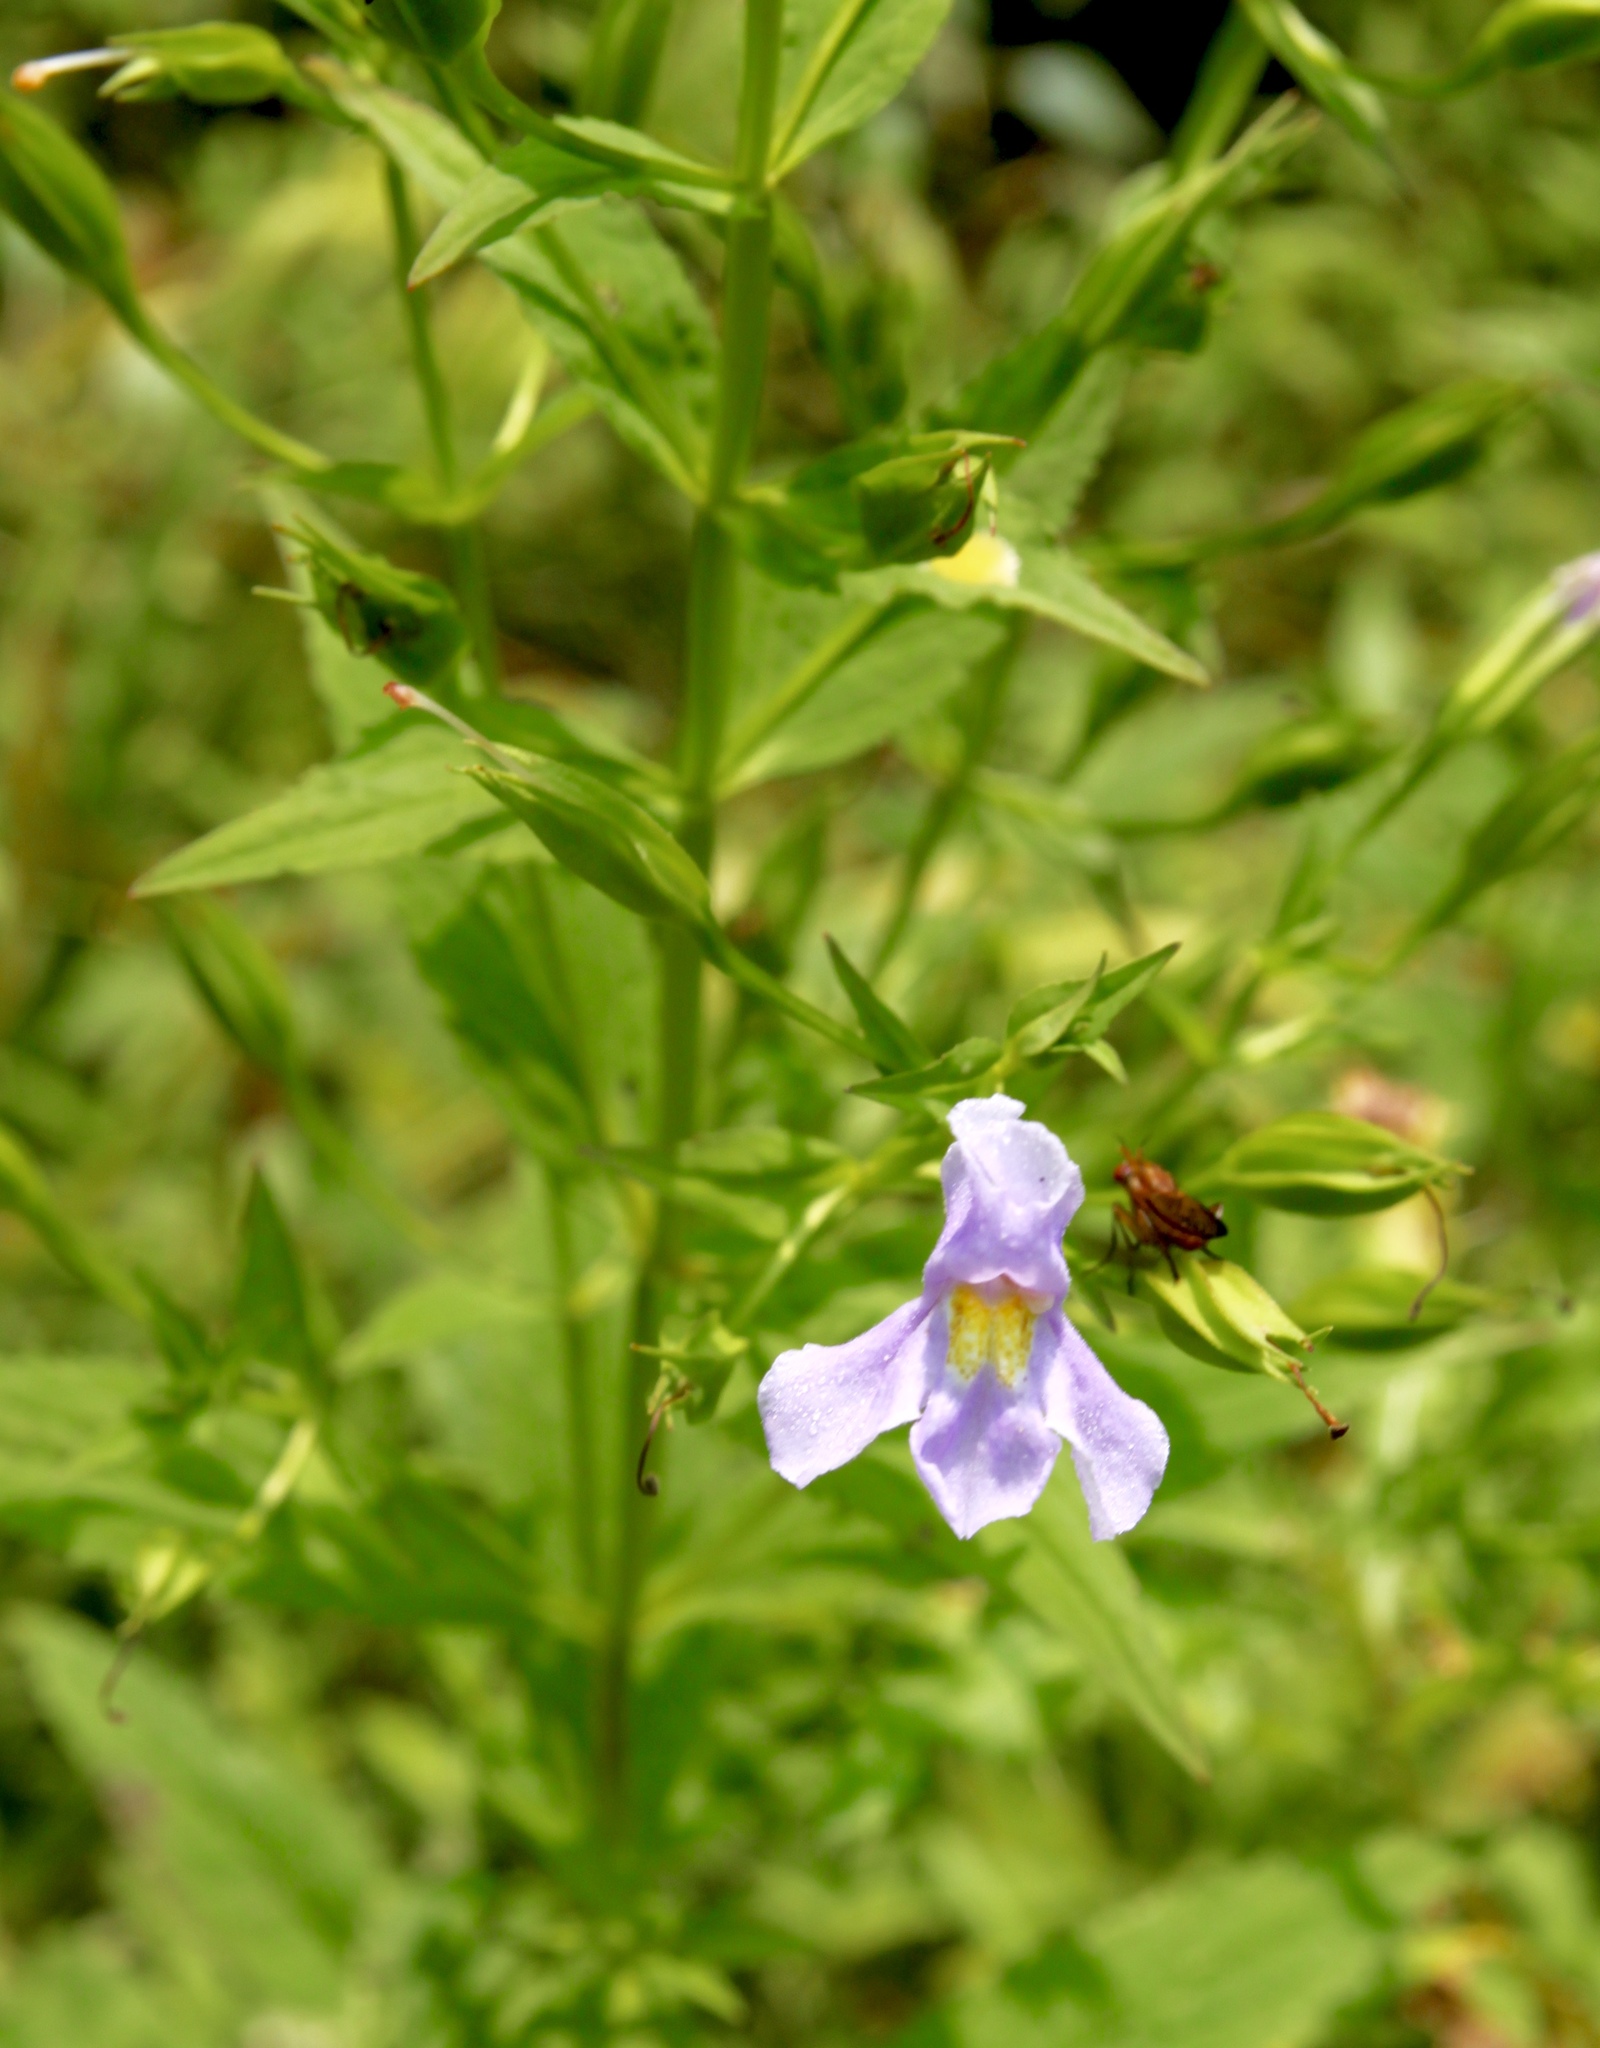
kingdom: Plantae
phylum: Tracheophyta
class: Magnoliopsida
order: Lamiales
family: Phrymaceae
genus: Mimulus
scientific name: Mimulus ringens
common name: Allegheny monkeyflower
